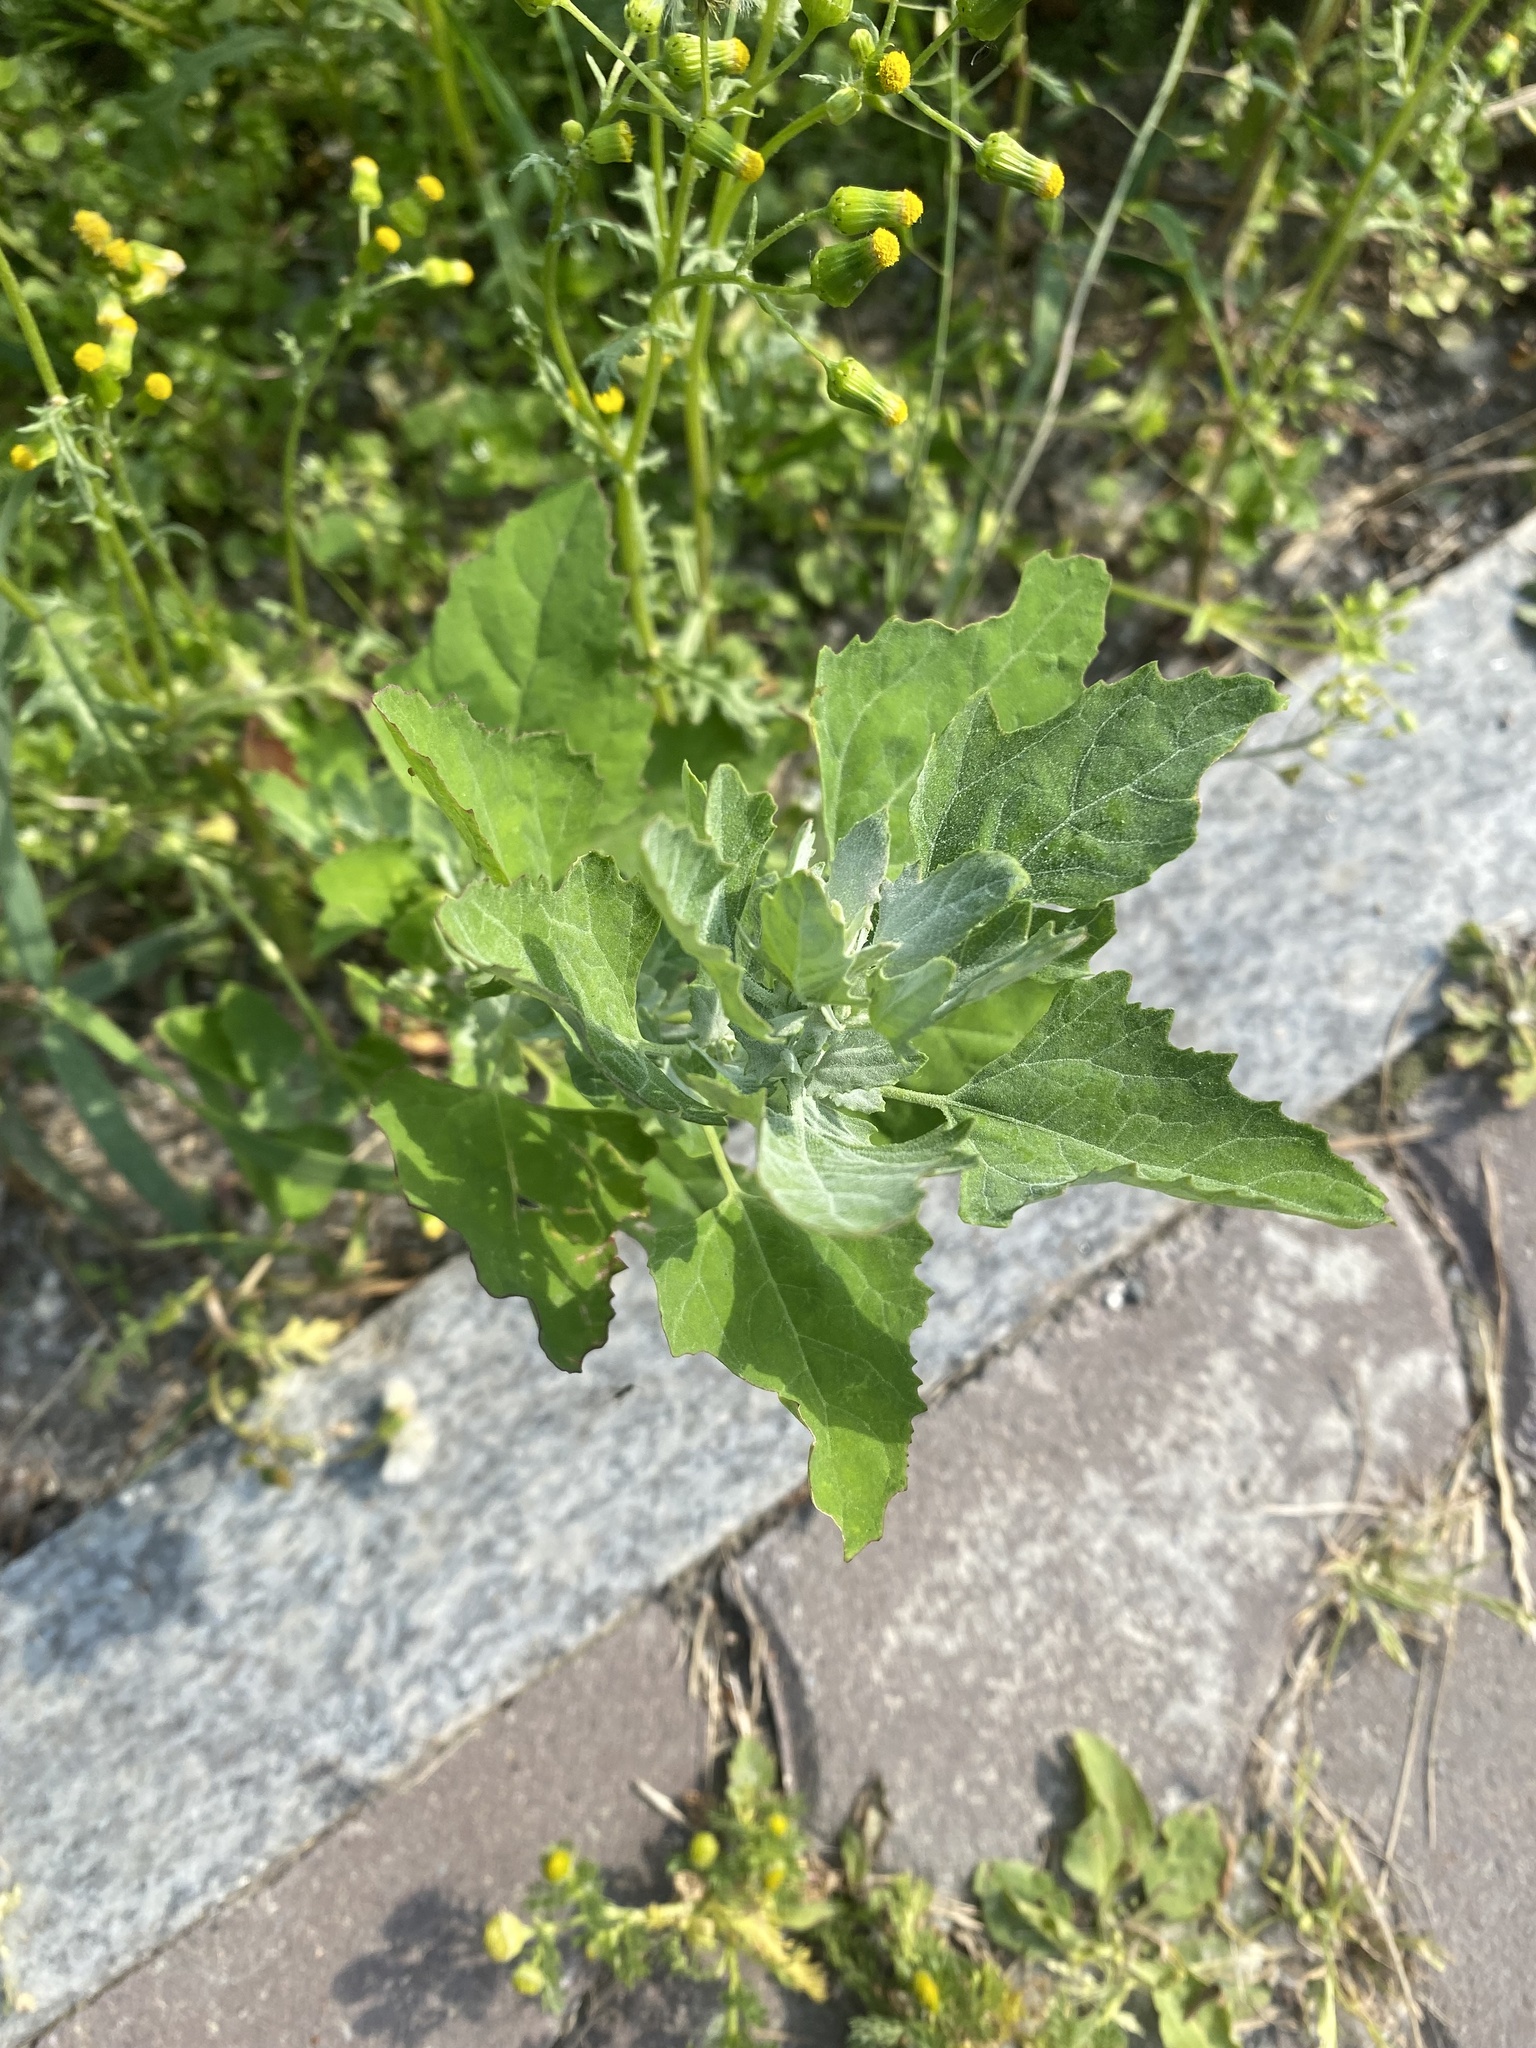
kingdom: Plantae
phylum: Tracheophyta
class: Magnoliopsida
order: Caryophyllales
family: Amaranthaceae
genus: Chenopodium
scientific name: Chenopodium album
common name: Fat-hen
